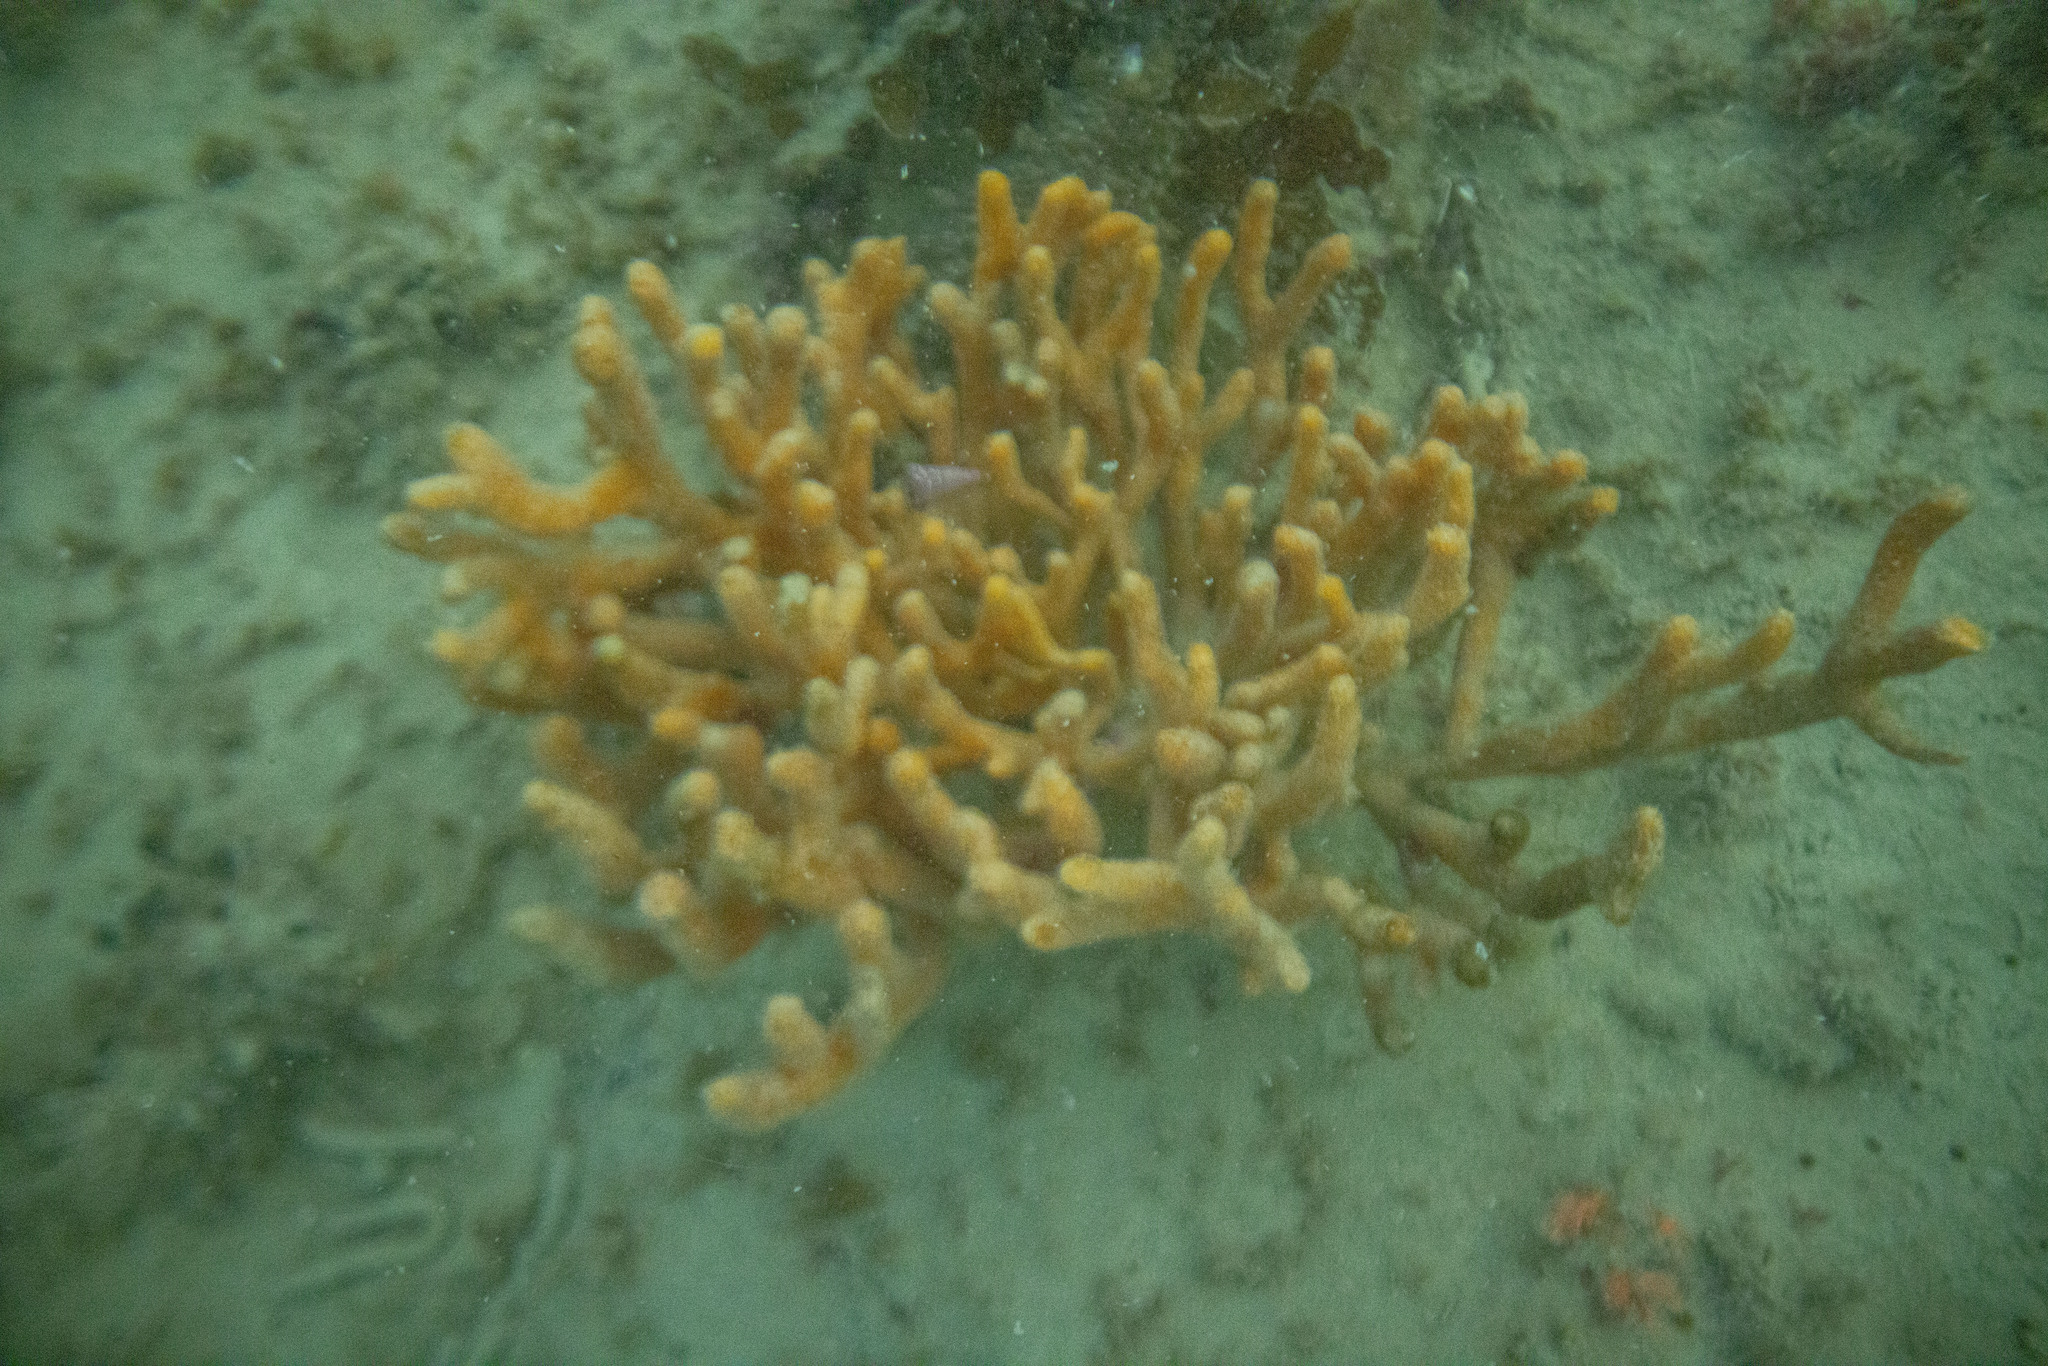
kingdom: Animalia
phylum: Porifera
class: Demospongiae
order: Axinellida
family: Raspailiidae
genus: Raspailia
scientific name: Raspailia topsenti
